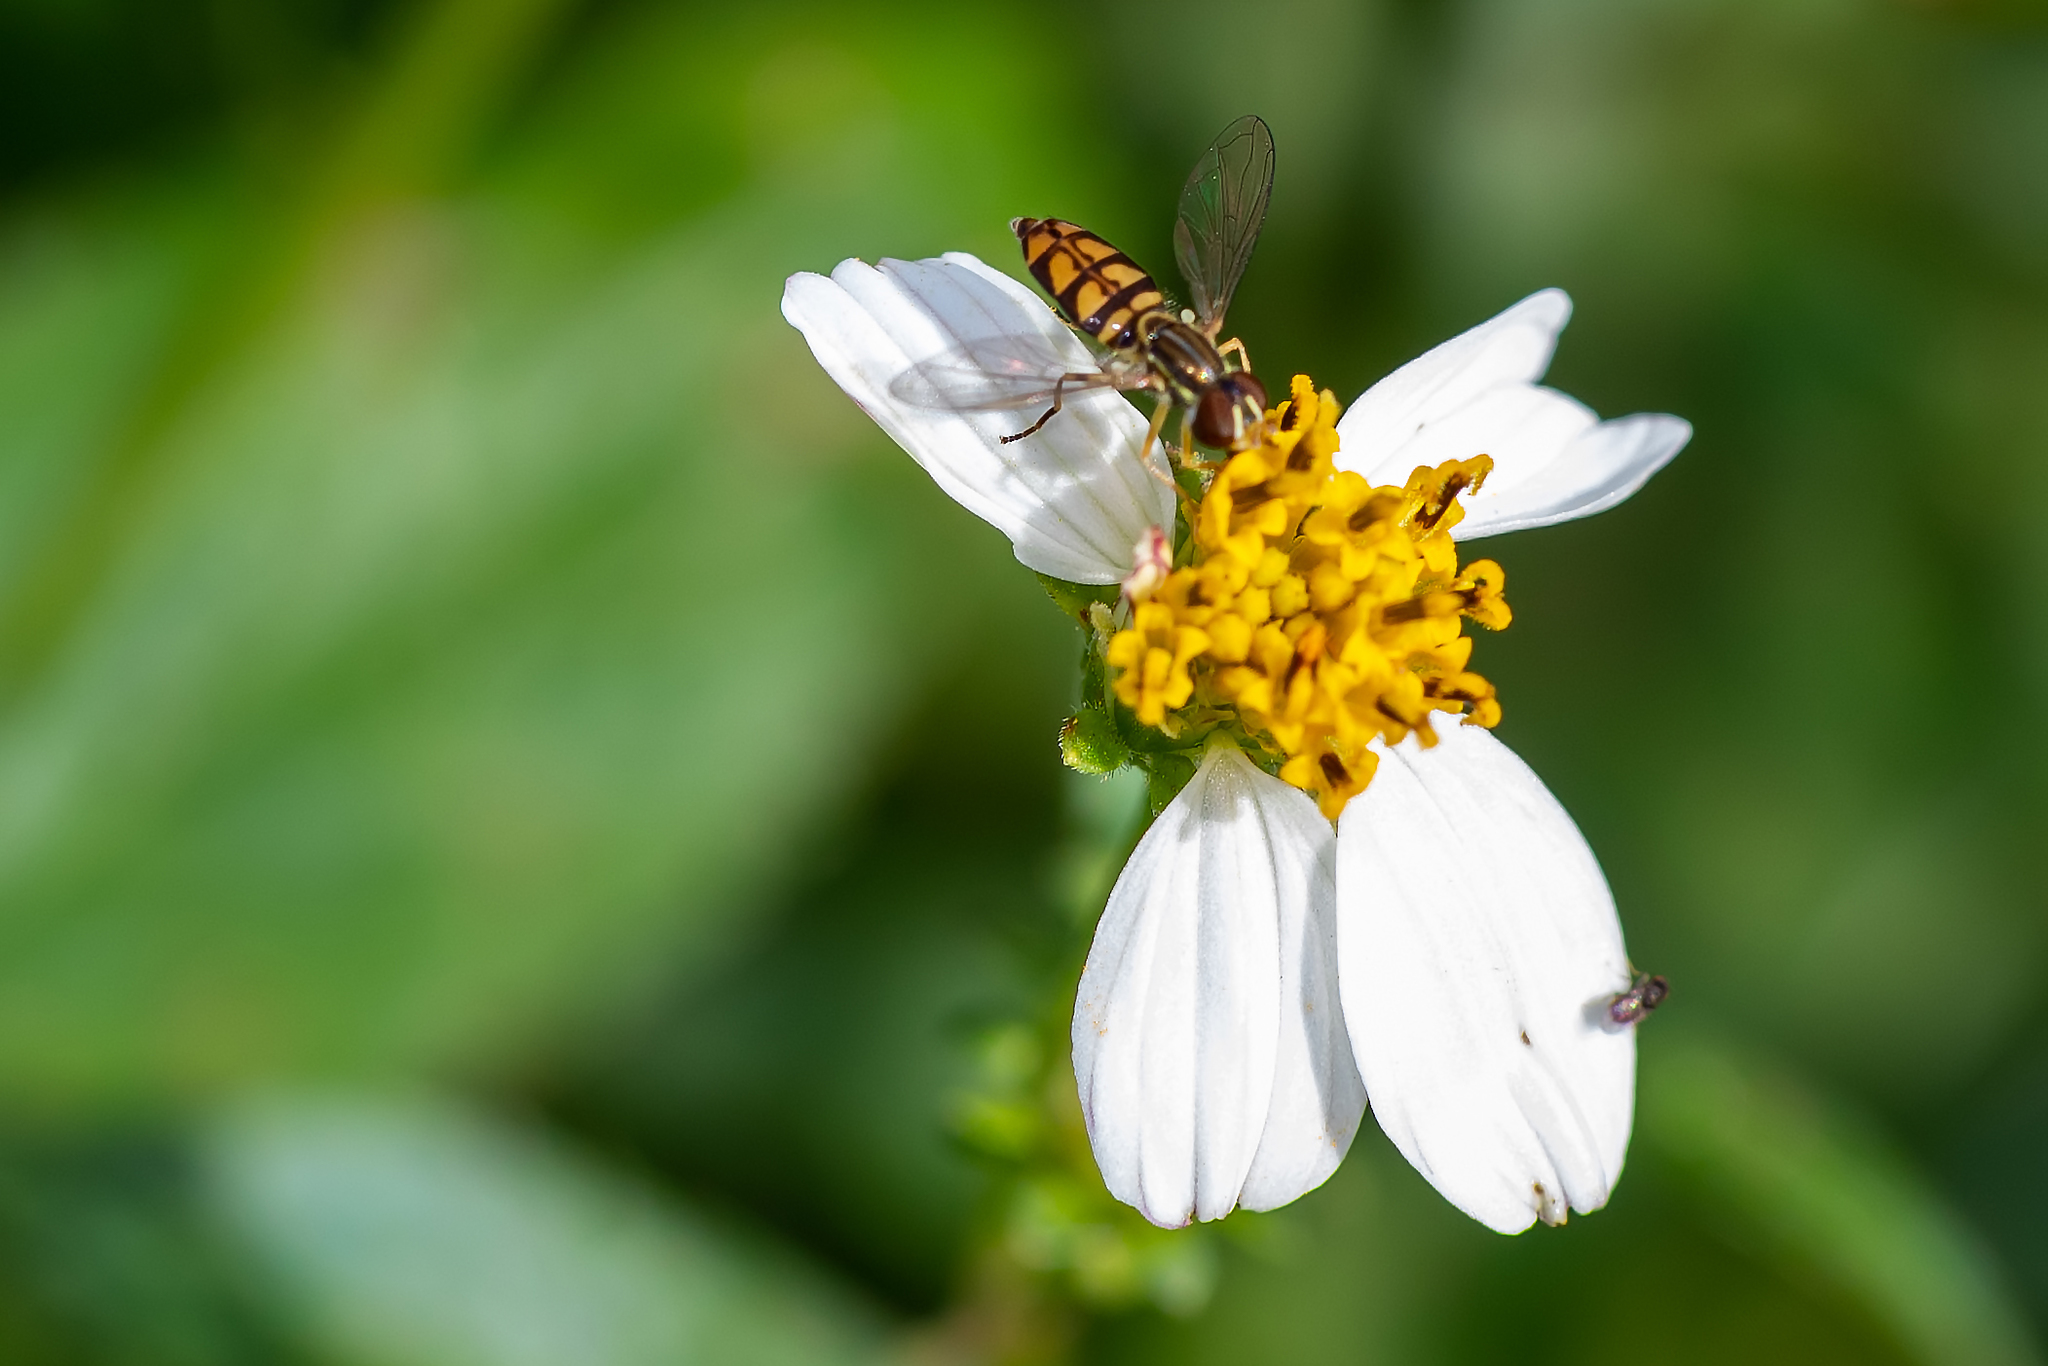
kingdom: Animalia
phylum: Arthropoda
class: Insecta
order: Diptera
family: Syrphidae
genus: Toxomerus
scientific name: Toxomerus floralis
